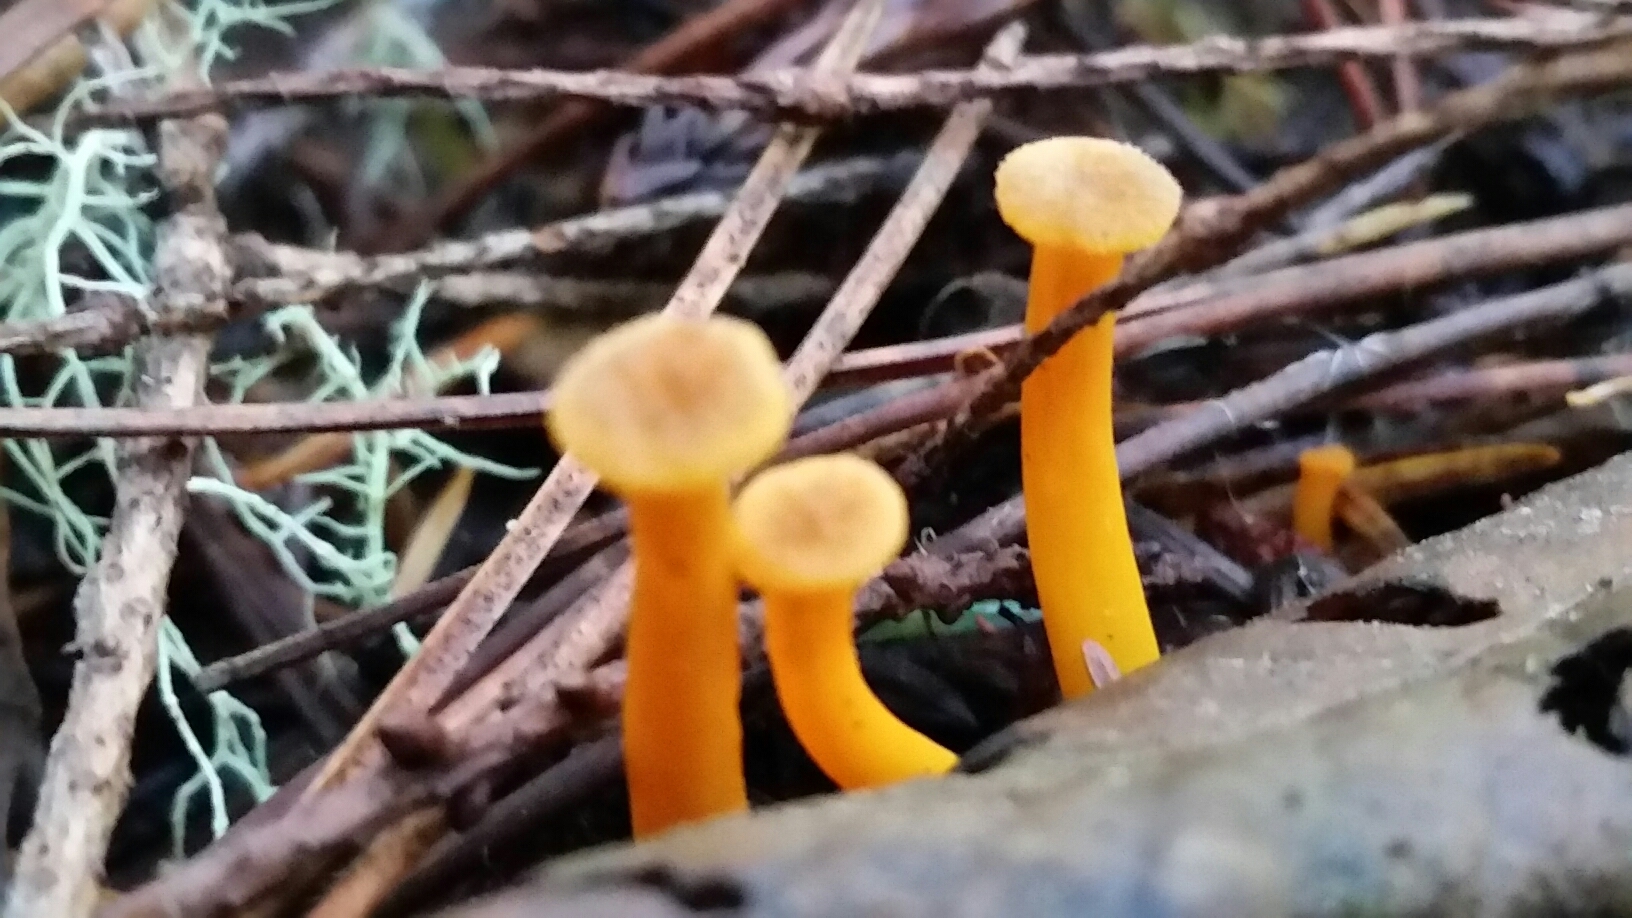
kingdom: Fungi
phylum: Basidiomycota
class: Agaricomycetes
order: Cantharellales
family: Hydnaceae
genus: Craterellus
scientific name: Craterellus tubaeformis
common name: Yellowfoot
